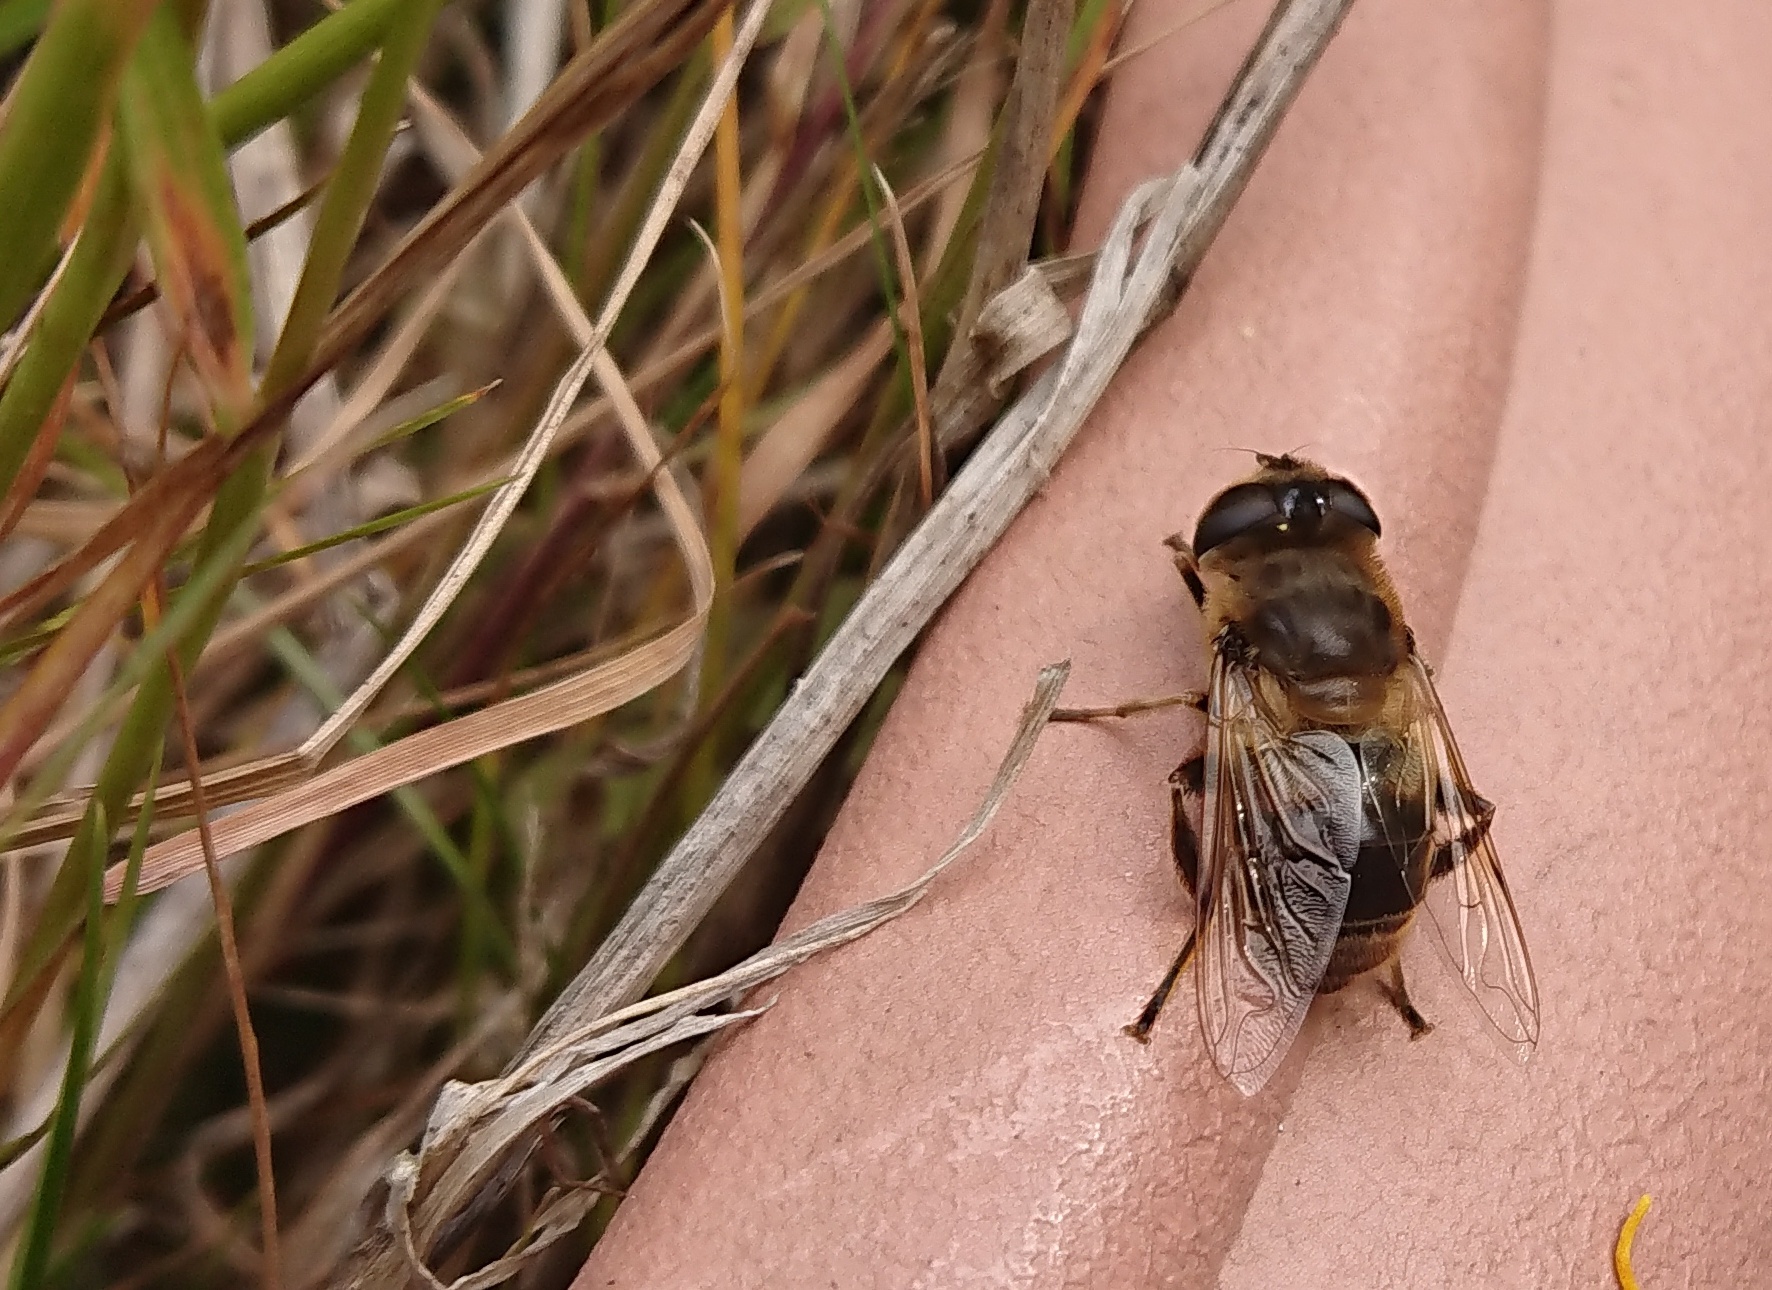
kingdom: Animalia
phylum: Arthropoda
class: Insecta
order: Diptera
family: Syrphidae
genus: Eristalis
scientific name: Eristalis tenax
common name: Drone fly
